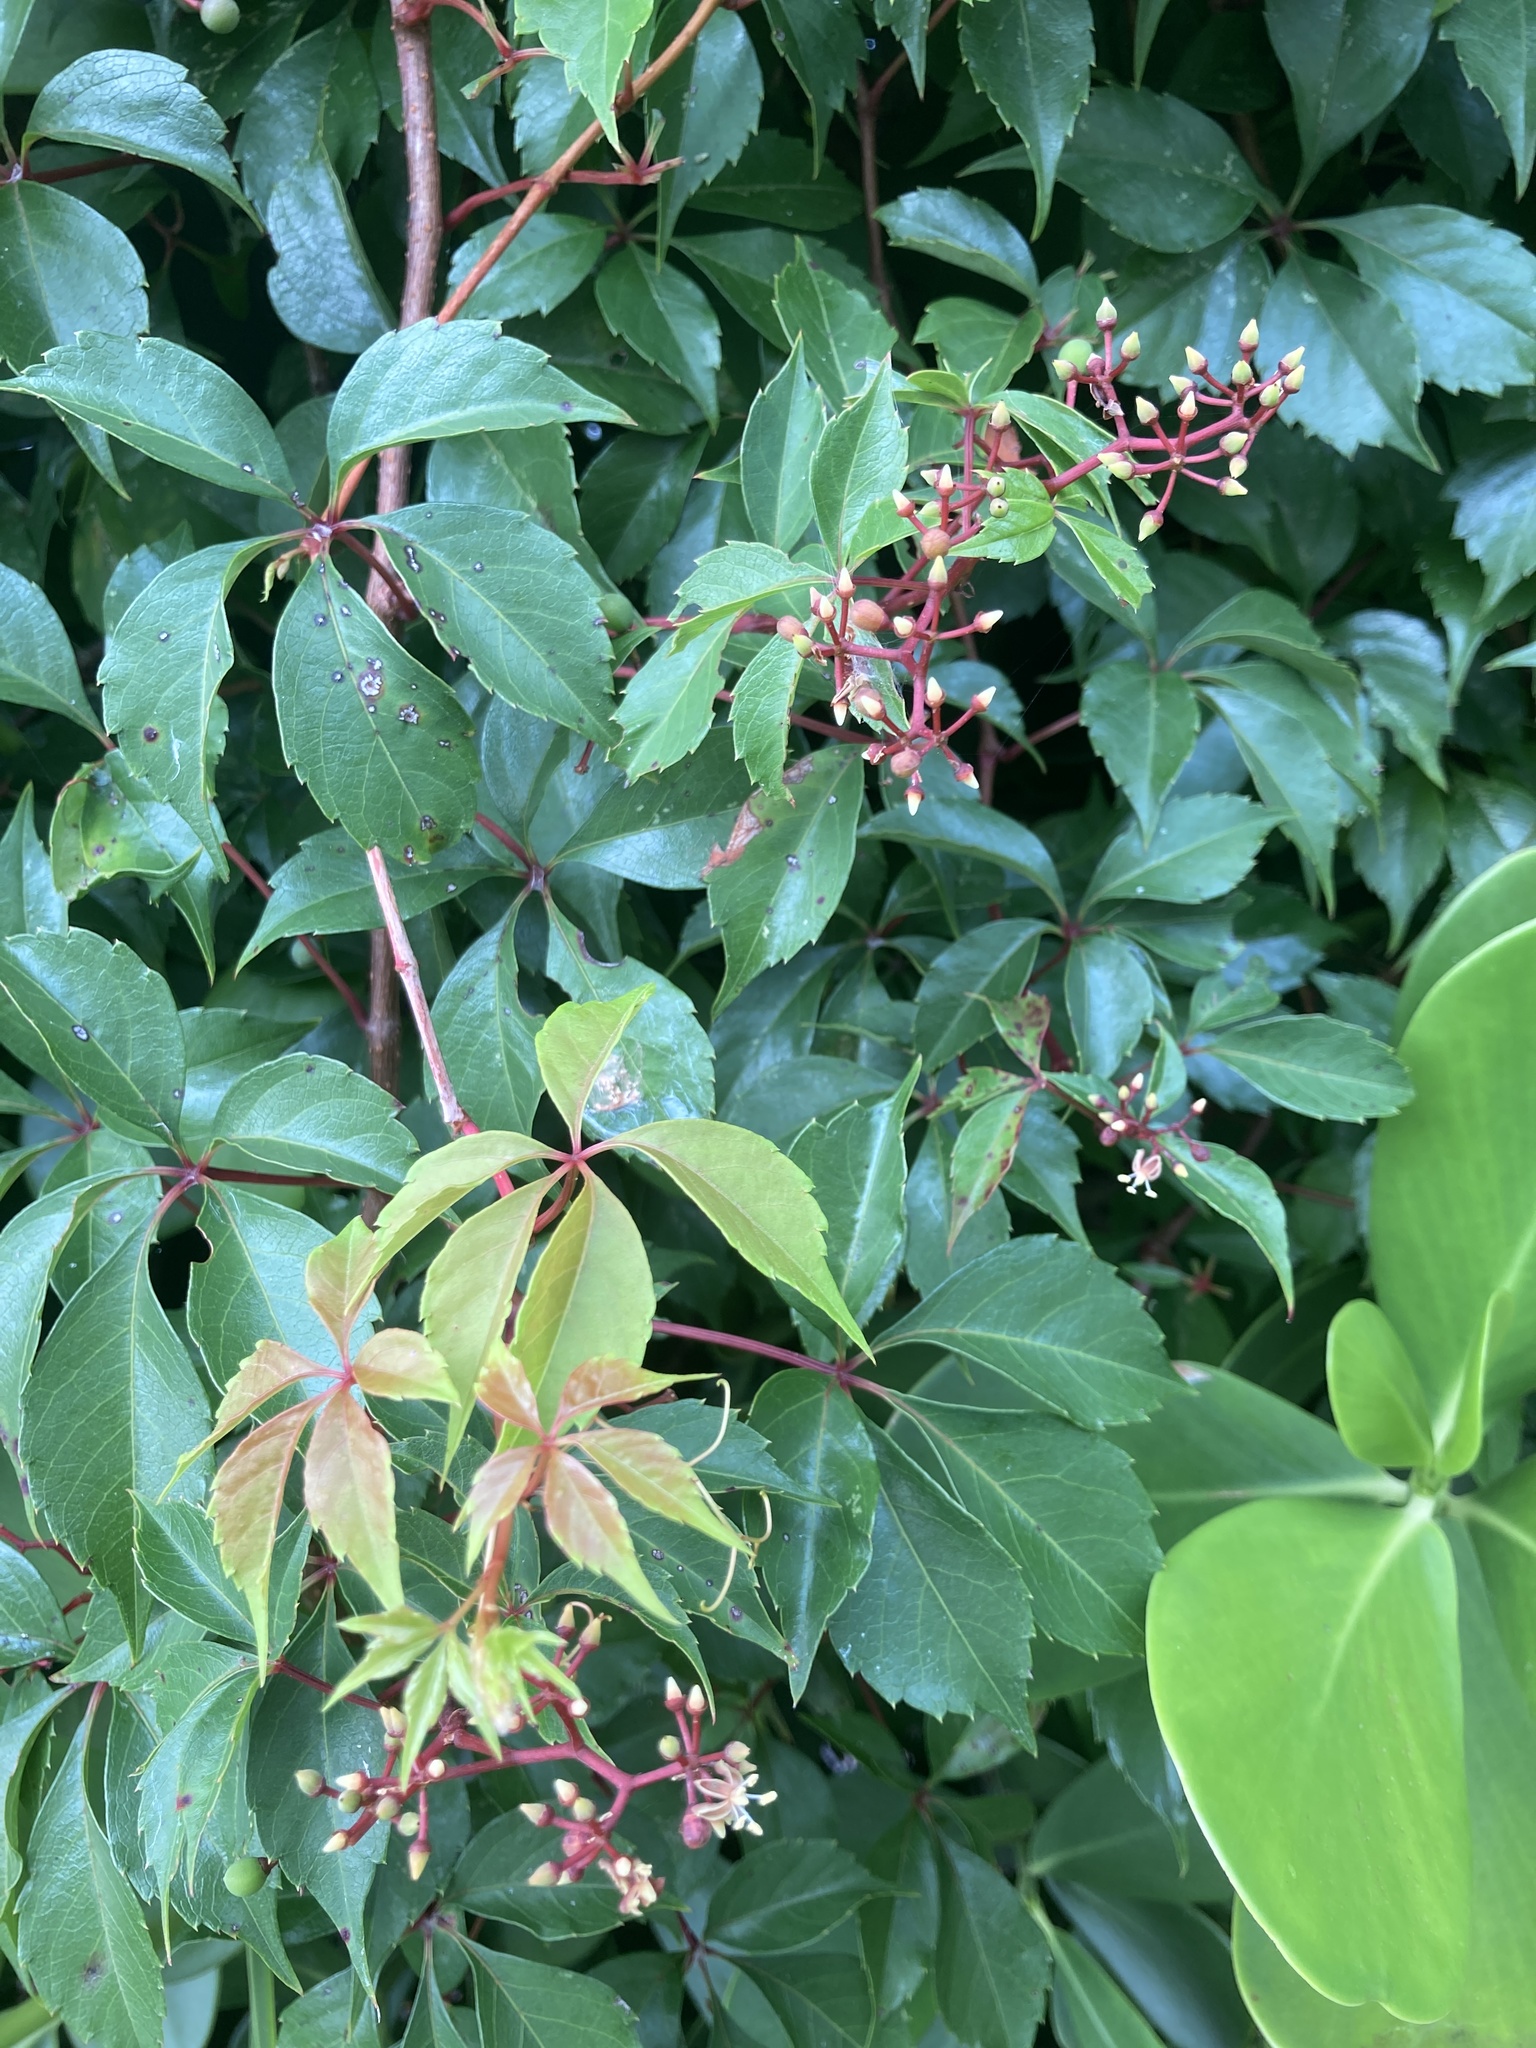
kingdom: Plantae
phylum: Tracheophyta
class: Magnoliopsida
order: Vitales
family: Vitaceae
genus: Parthenocissus
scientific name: Parthenocissus quinquefolia
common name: Virginia-creeper
